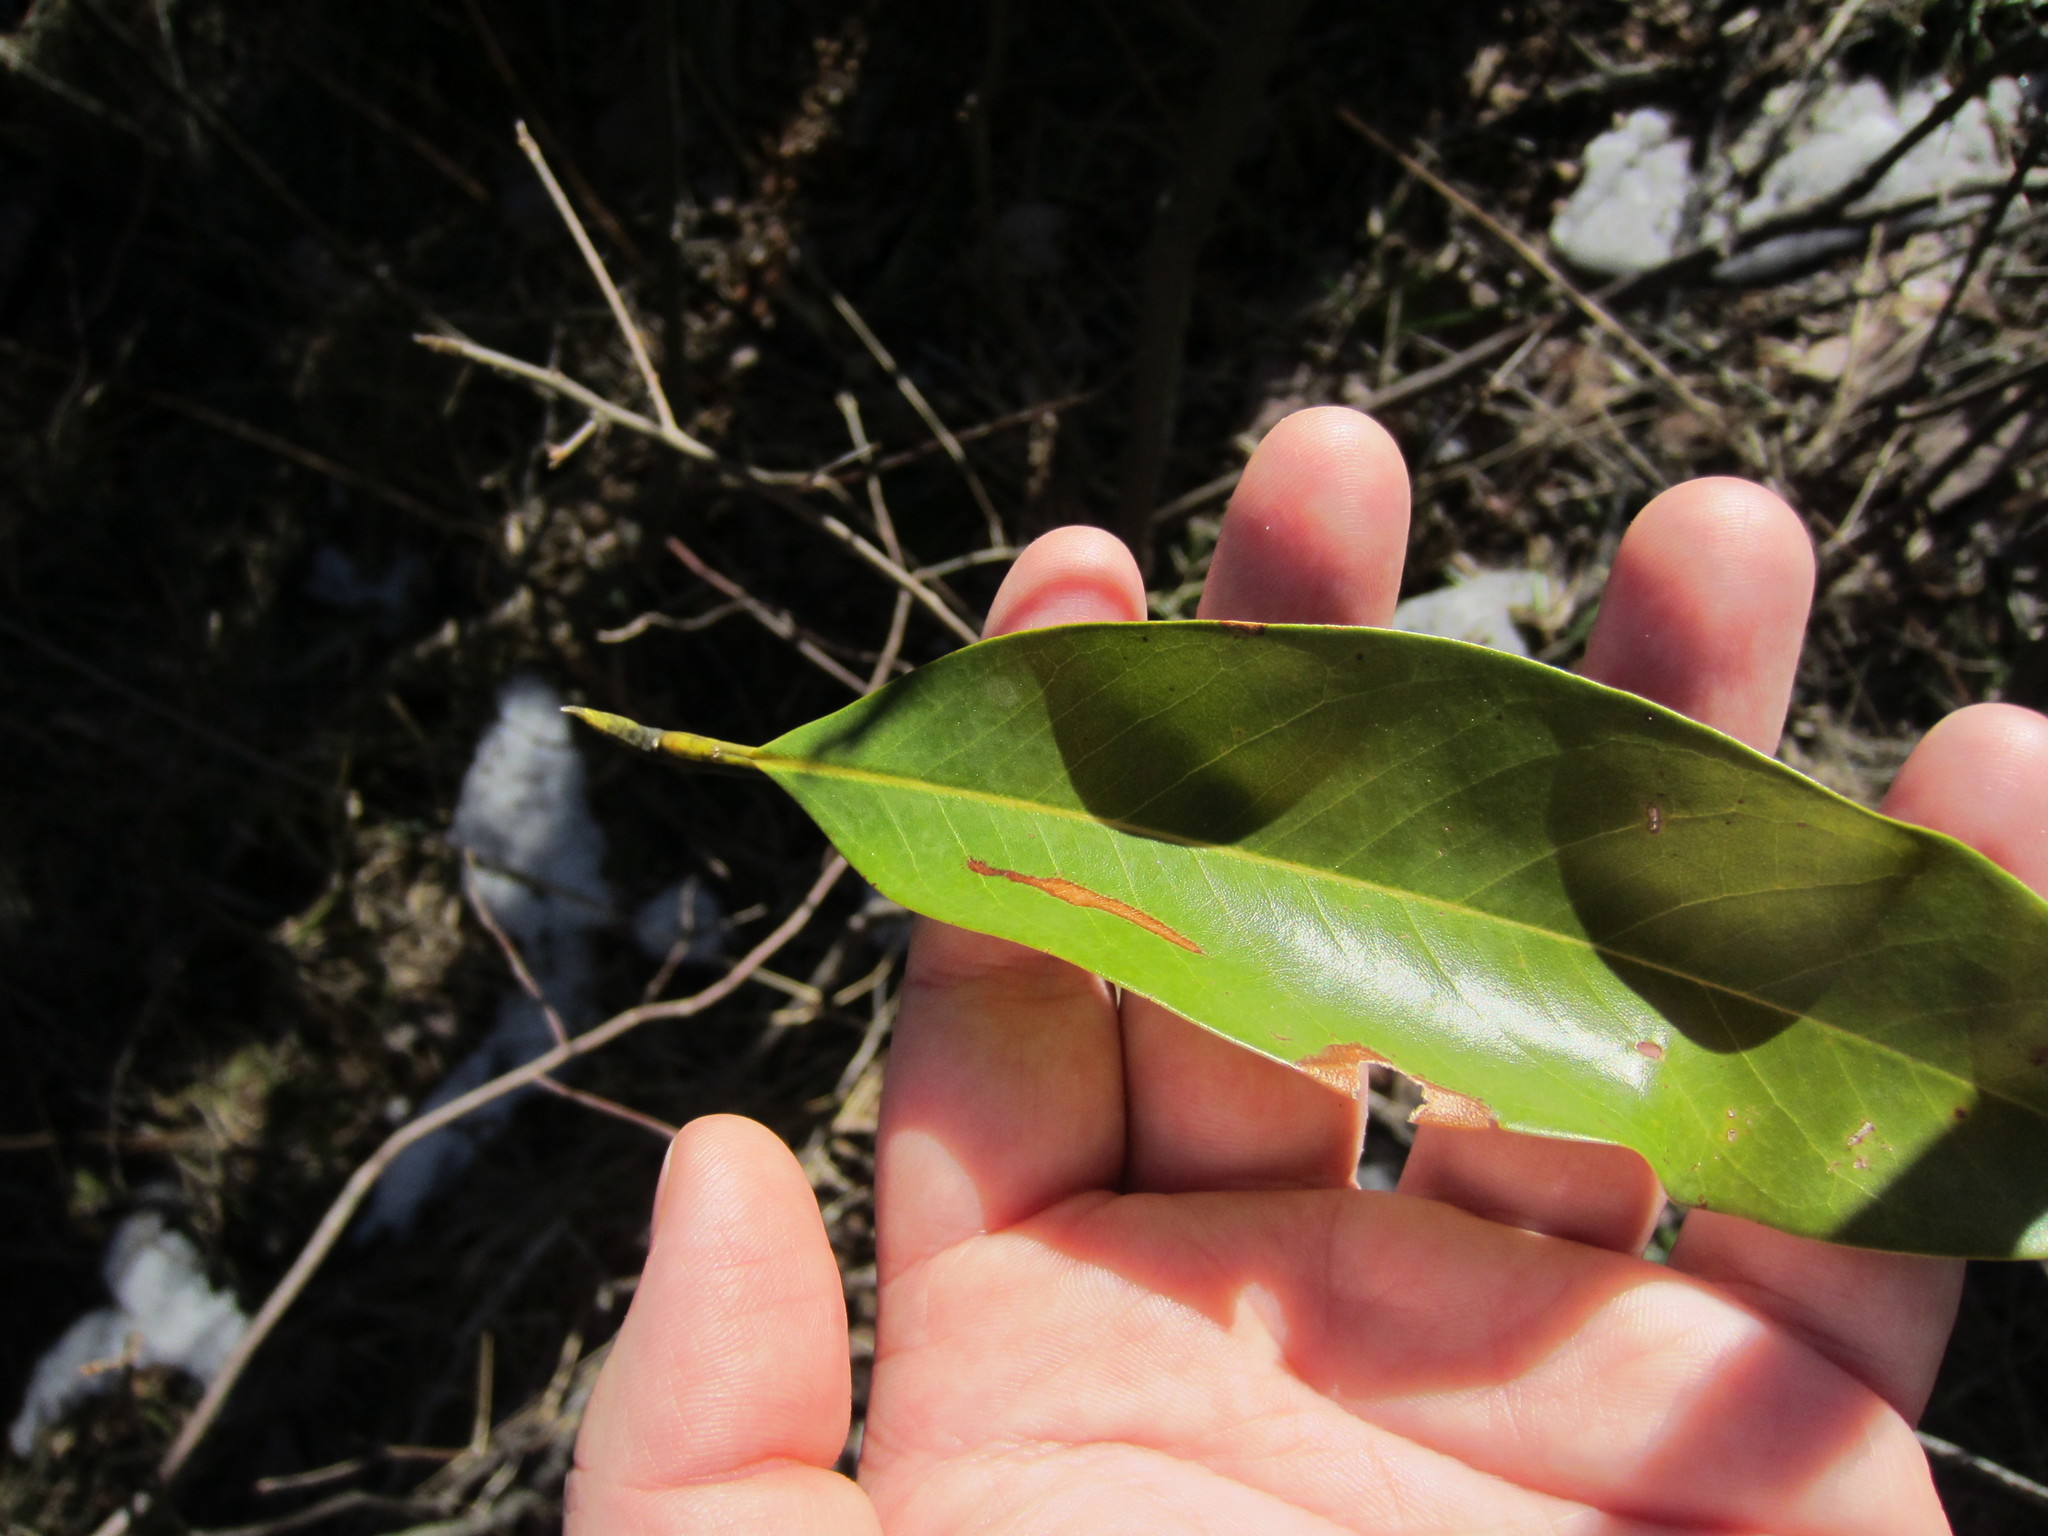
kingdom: Plantae
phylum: Tracheophyta
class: Magnoliopsida
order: Magnoliales
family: Magnoliaceae
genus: Magnolia
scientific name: Magnolia virginiana
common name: Swamp bay
